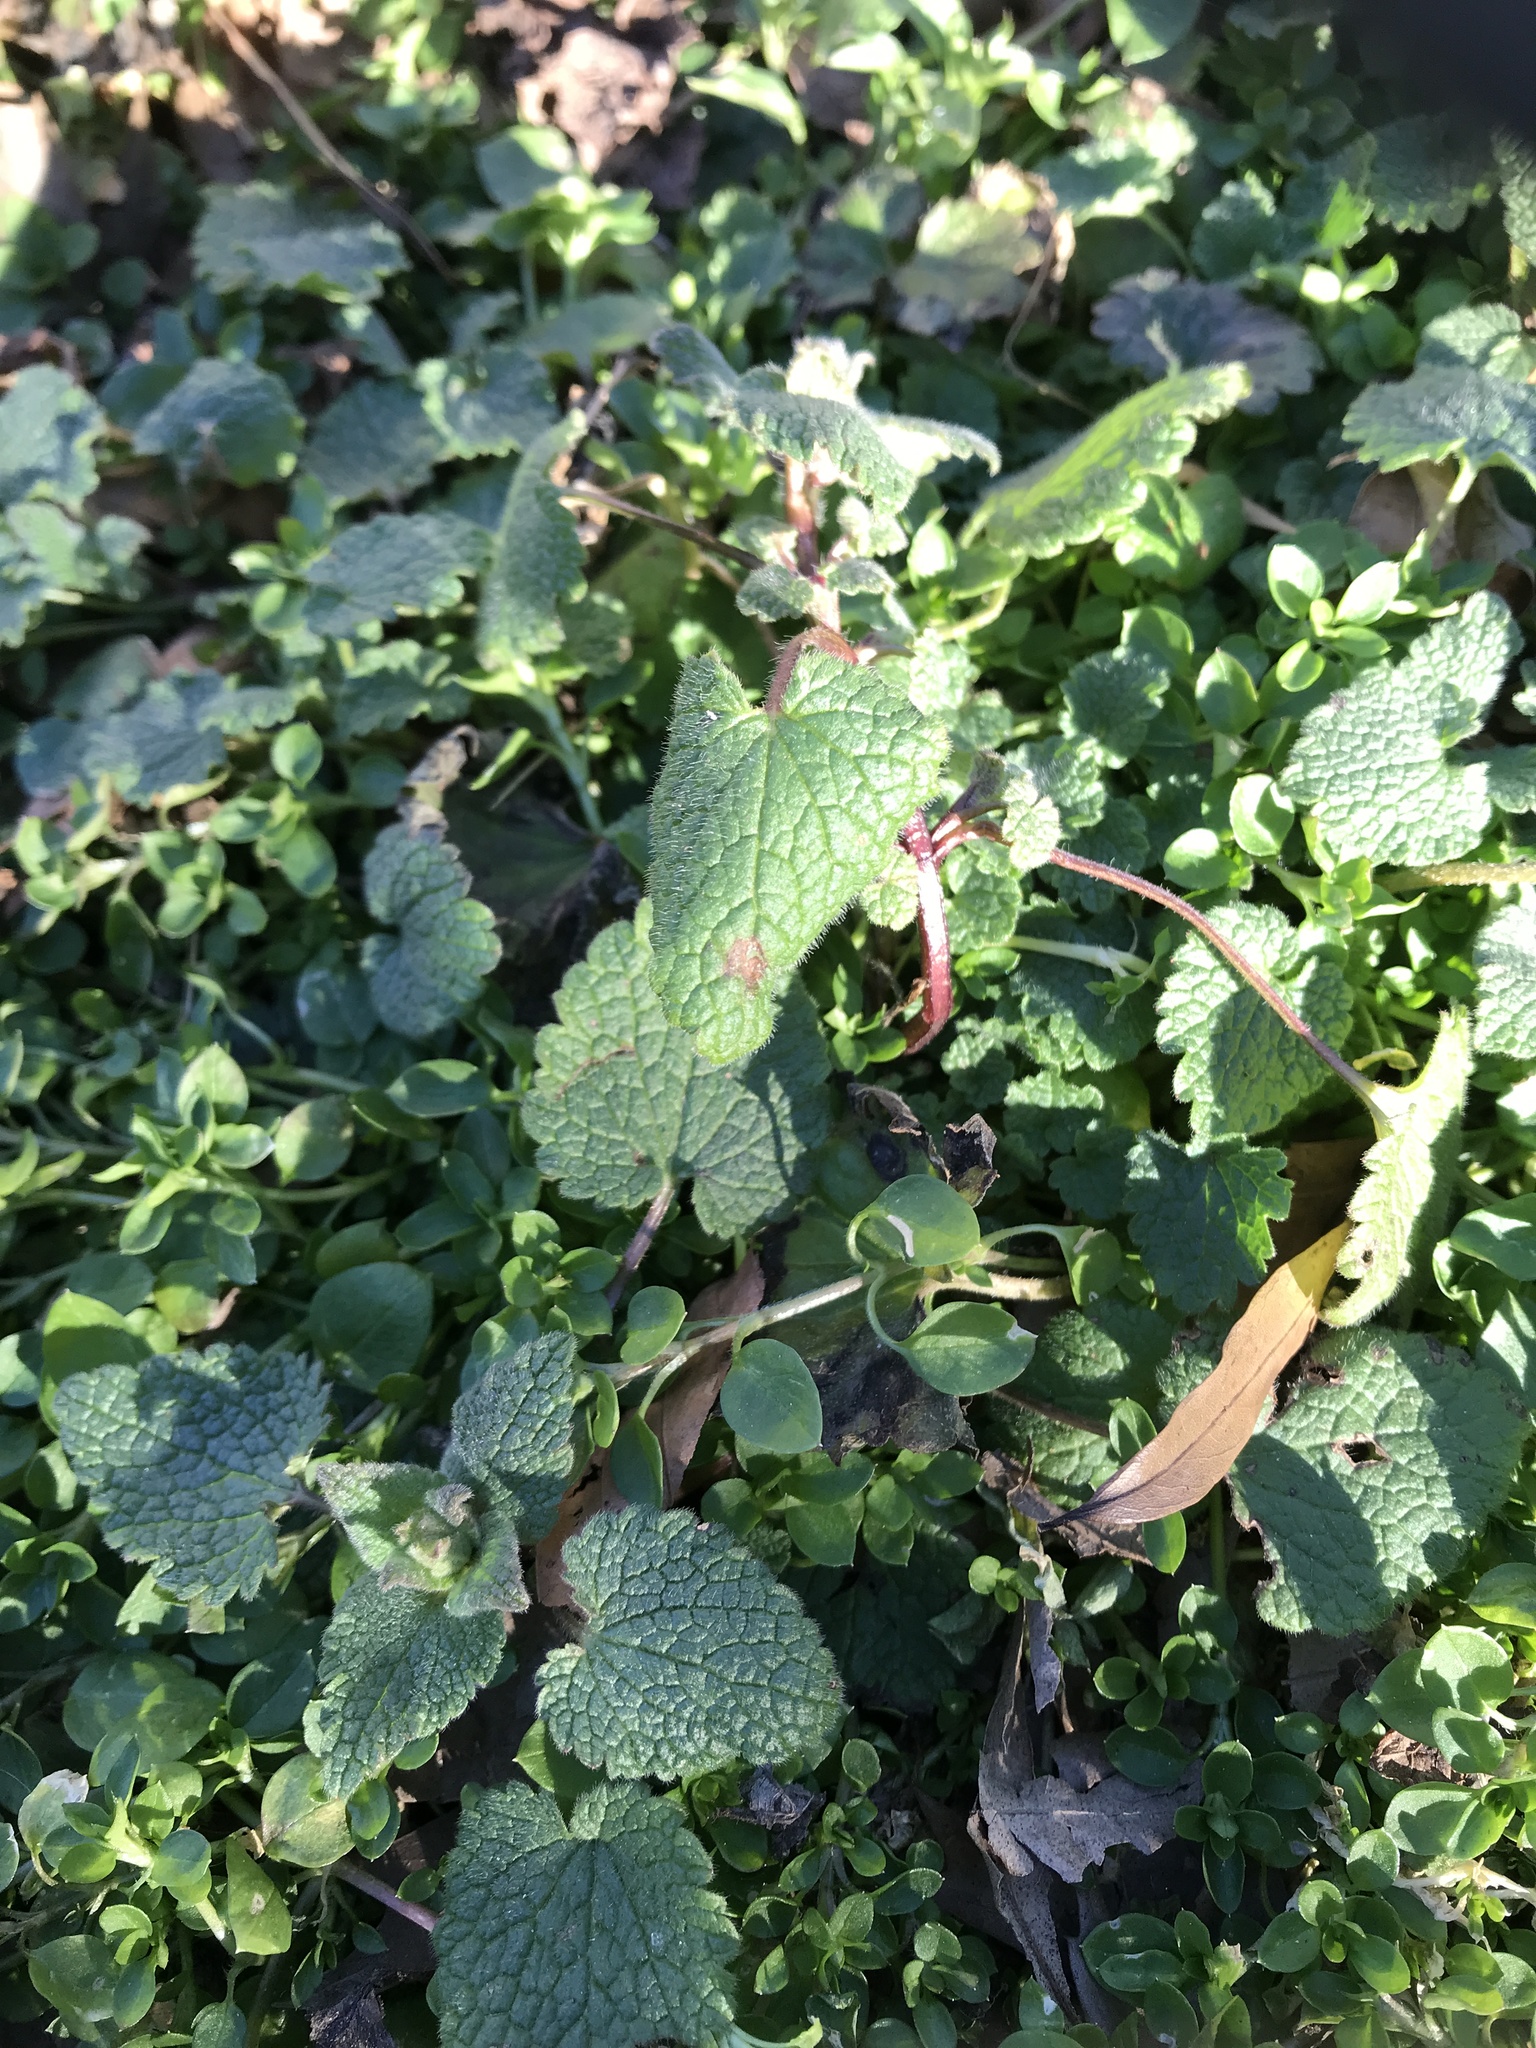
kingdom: Plantae
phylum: Tracheophyta
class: Magnoliopsida
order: Lamiales
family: Lamiaceae
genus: Lamium
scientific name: Lamium purpureum
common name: Red dead-nettle
